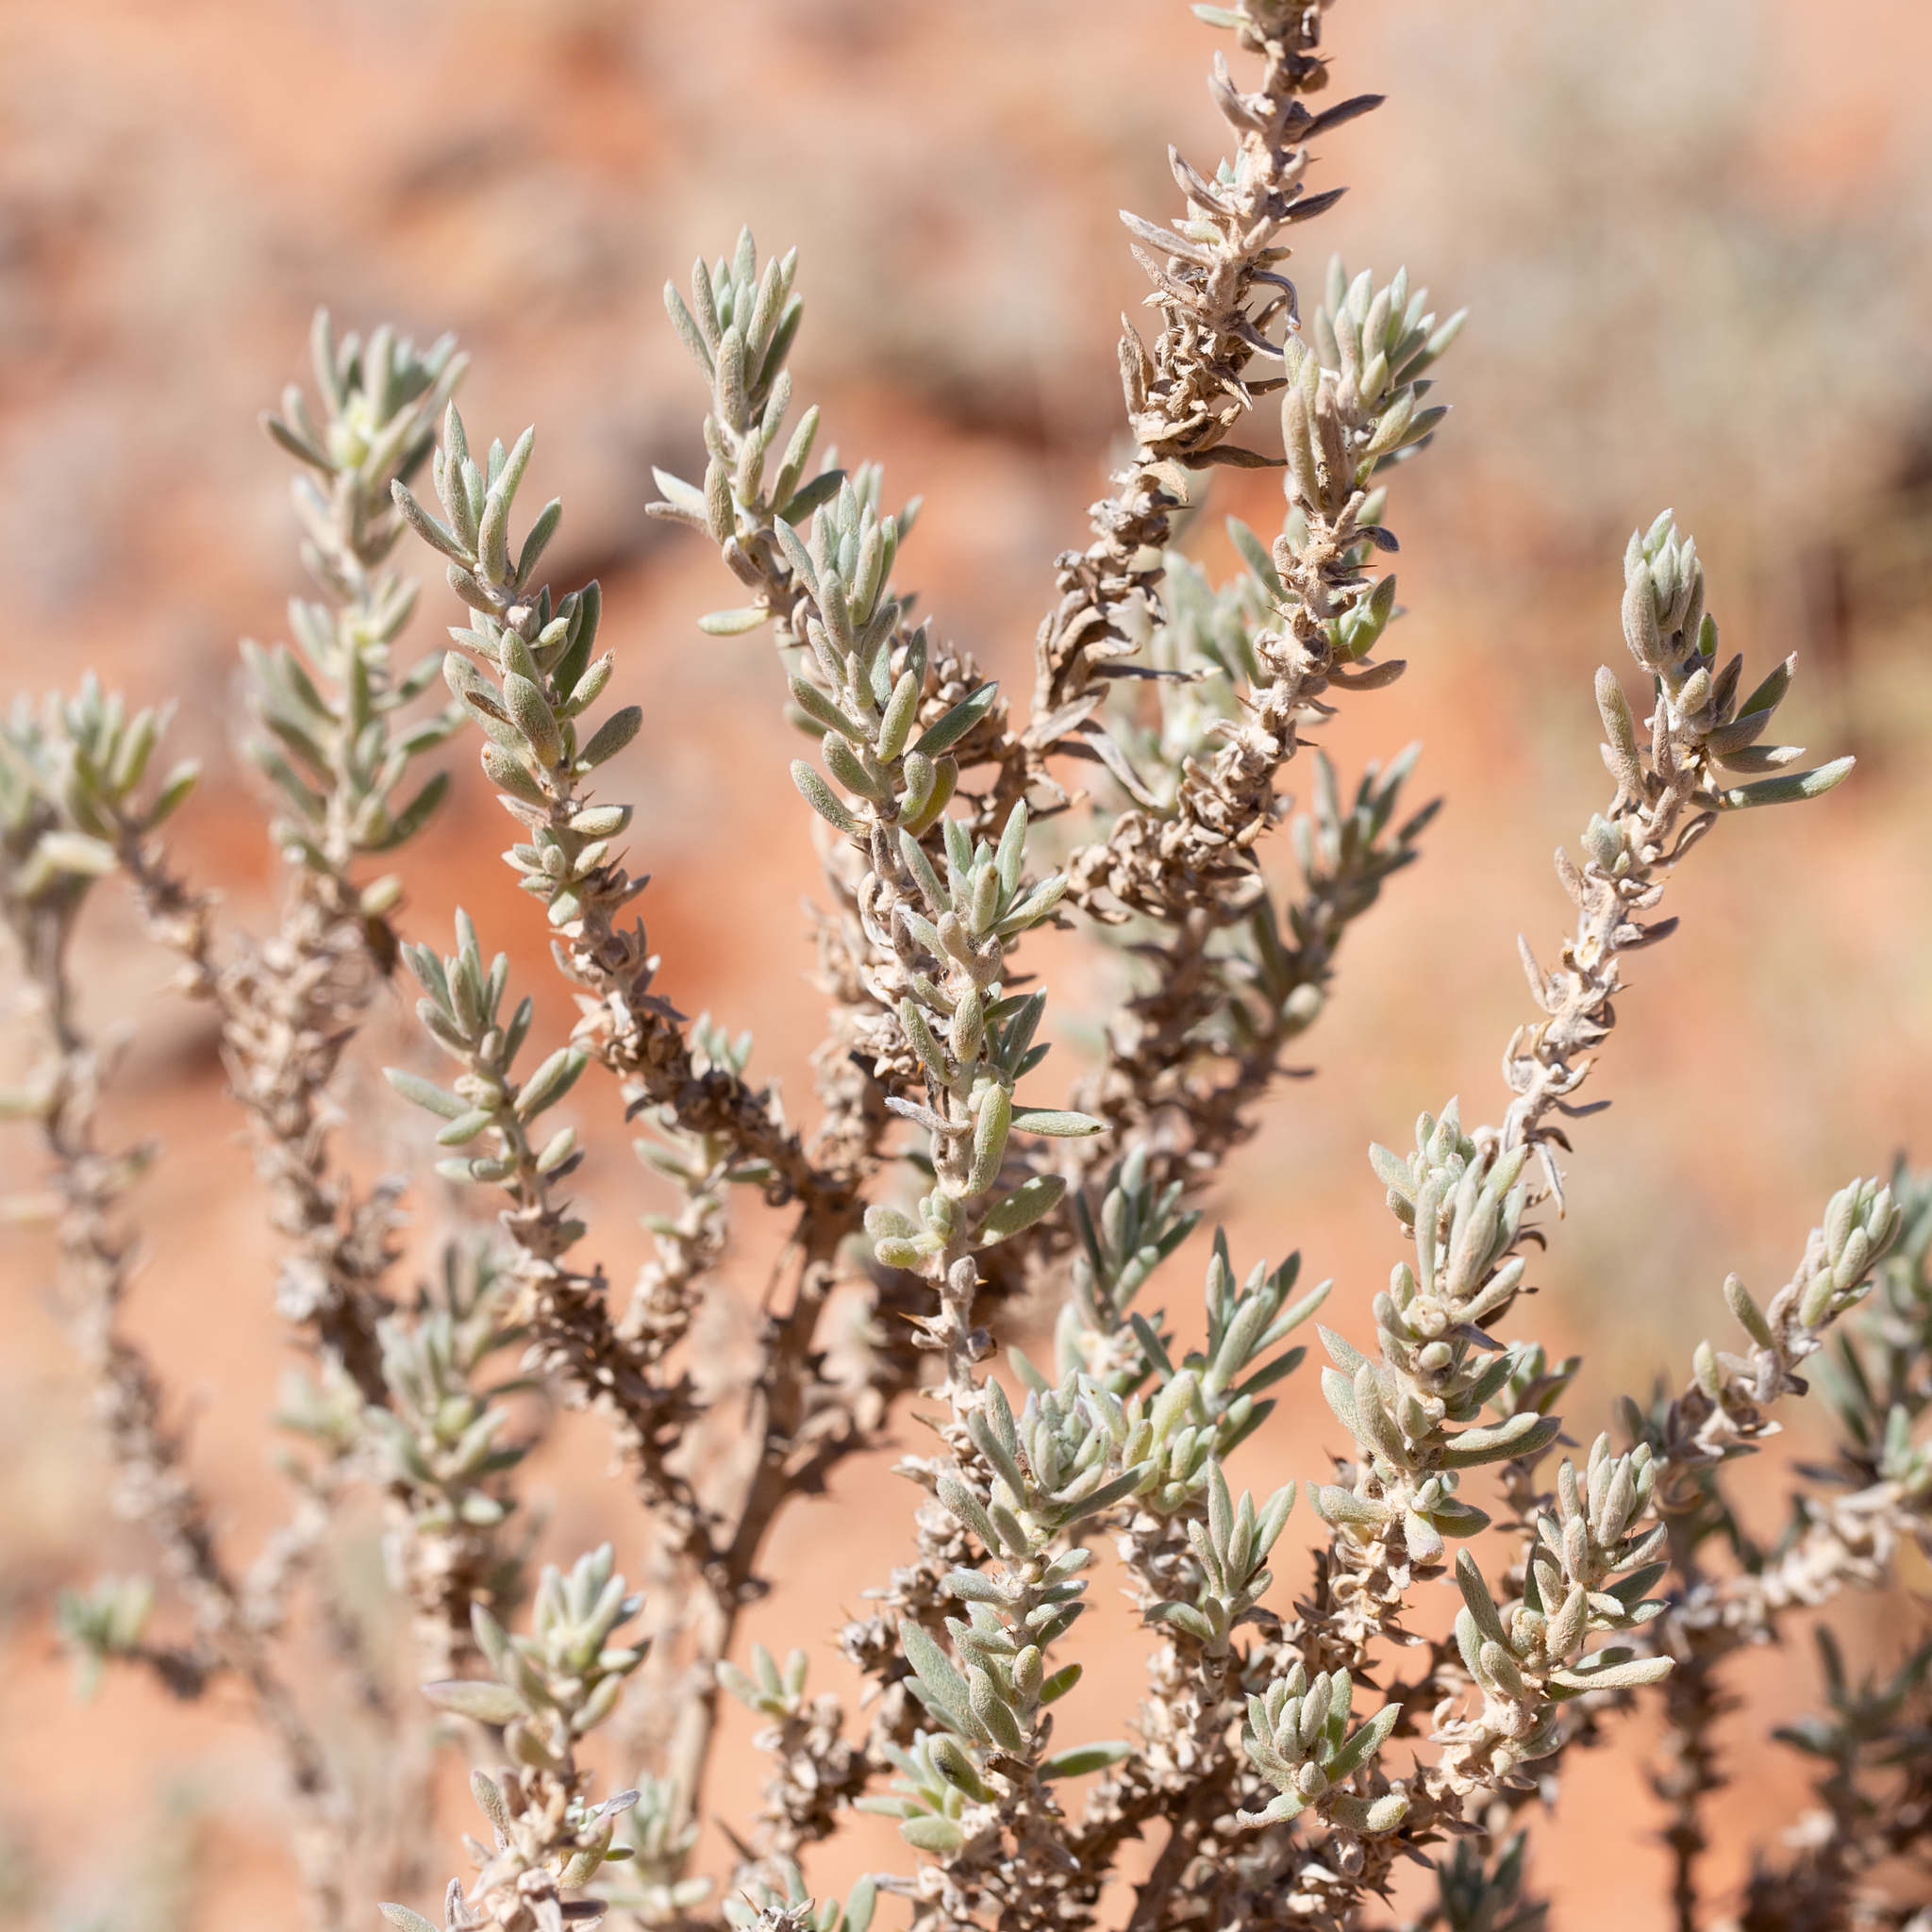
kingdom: Plantae
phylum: Tracheophyta
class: Magnoliopsida
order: Caryophyllales
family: Amaranthaceae
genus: Sclerolaena
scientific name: Sclerolaena diacantha
